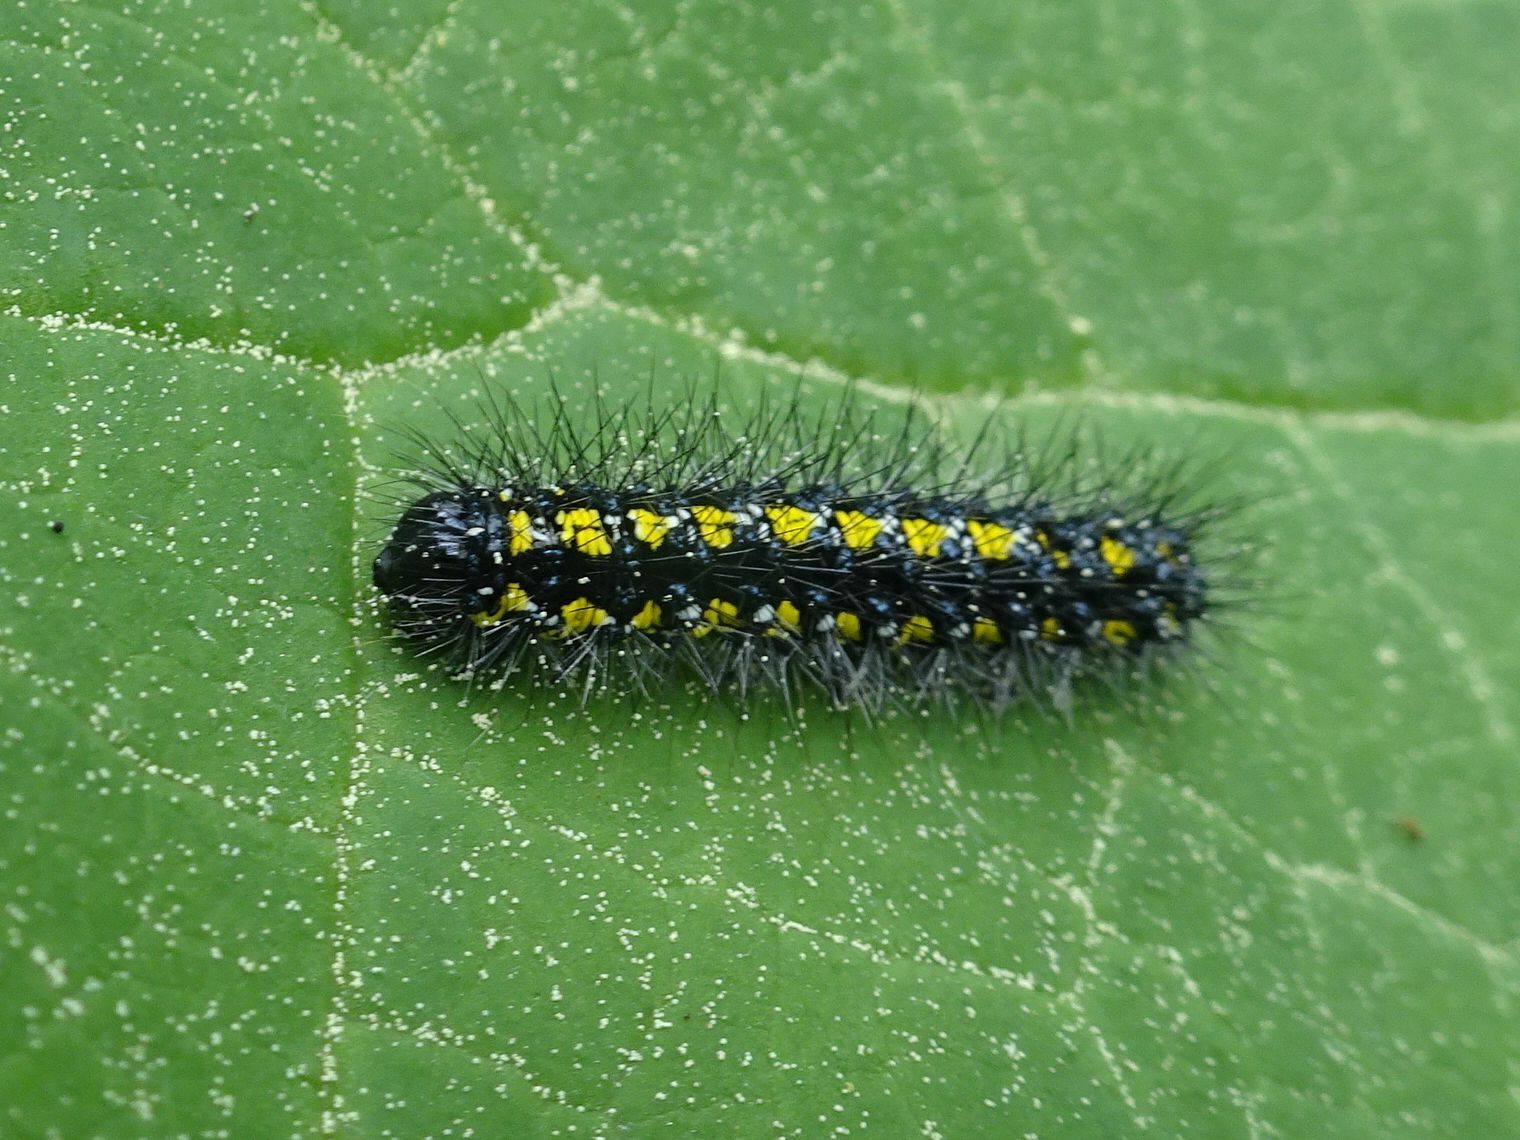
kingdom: Animalia
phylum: Arthropoda
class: Insecta
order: Lepidoptera
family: Erebidae
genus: Callimorpha
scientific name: Callimorpha dominula
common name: Scarlet tiger
